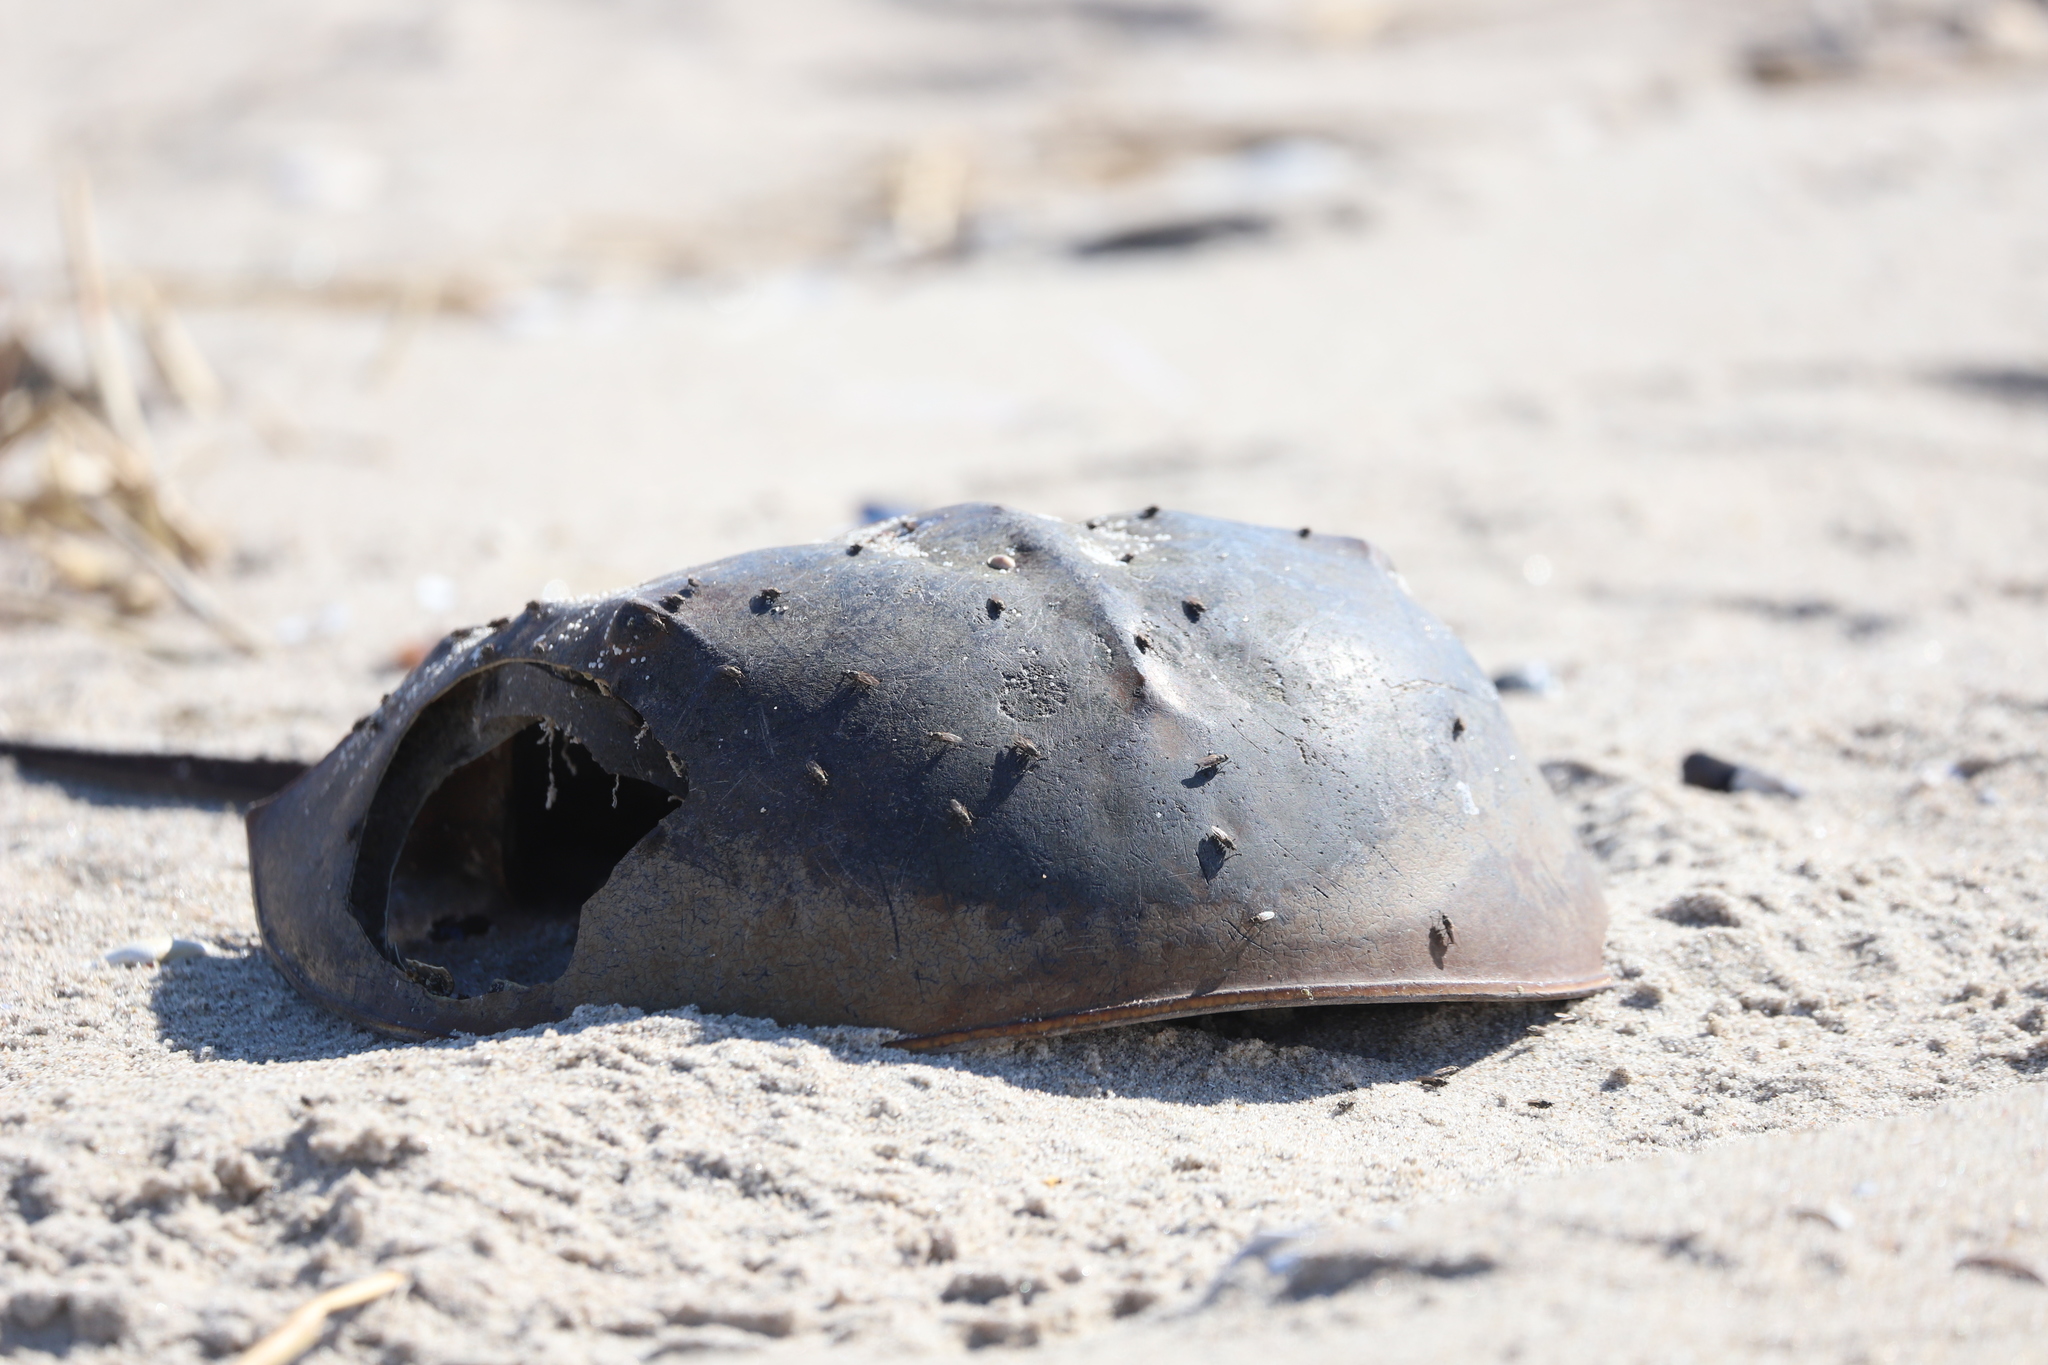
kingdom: Animalia
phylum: Arthropoda
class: Merostomata
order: Xiphosurida
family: Limulidae
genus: Limulus
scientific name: Limulus polyphemus
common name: Horseshoe crab
